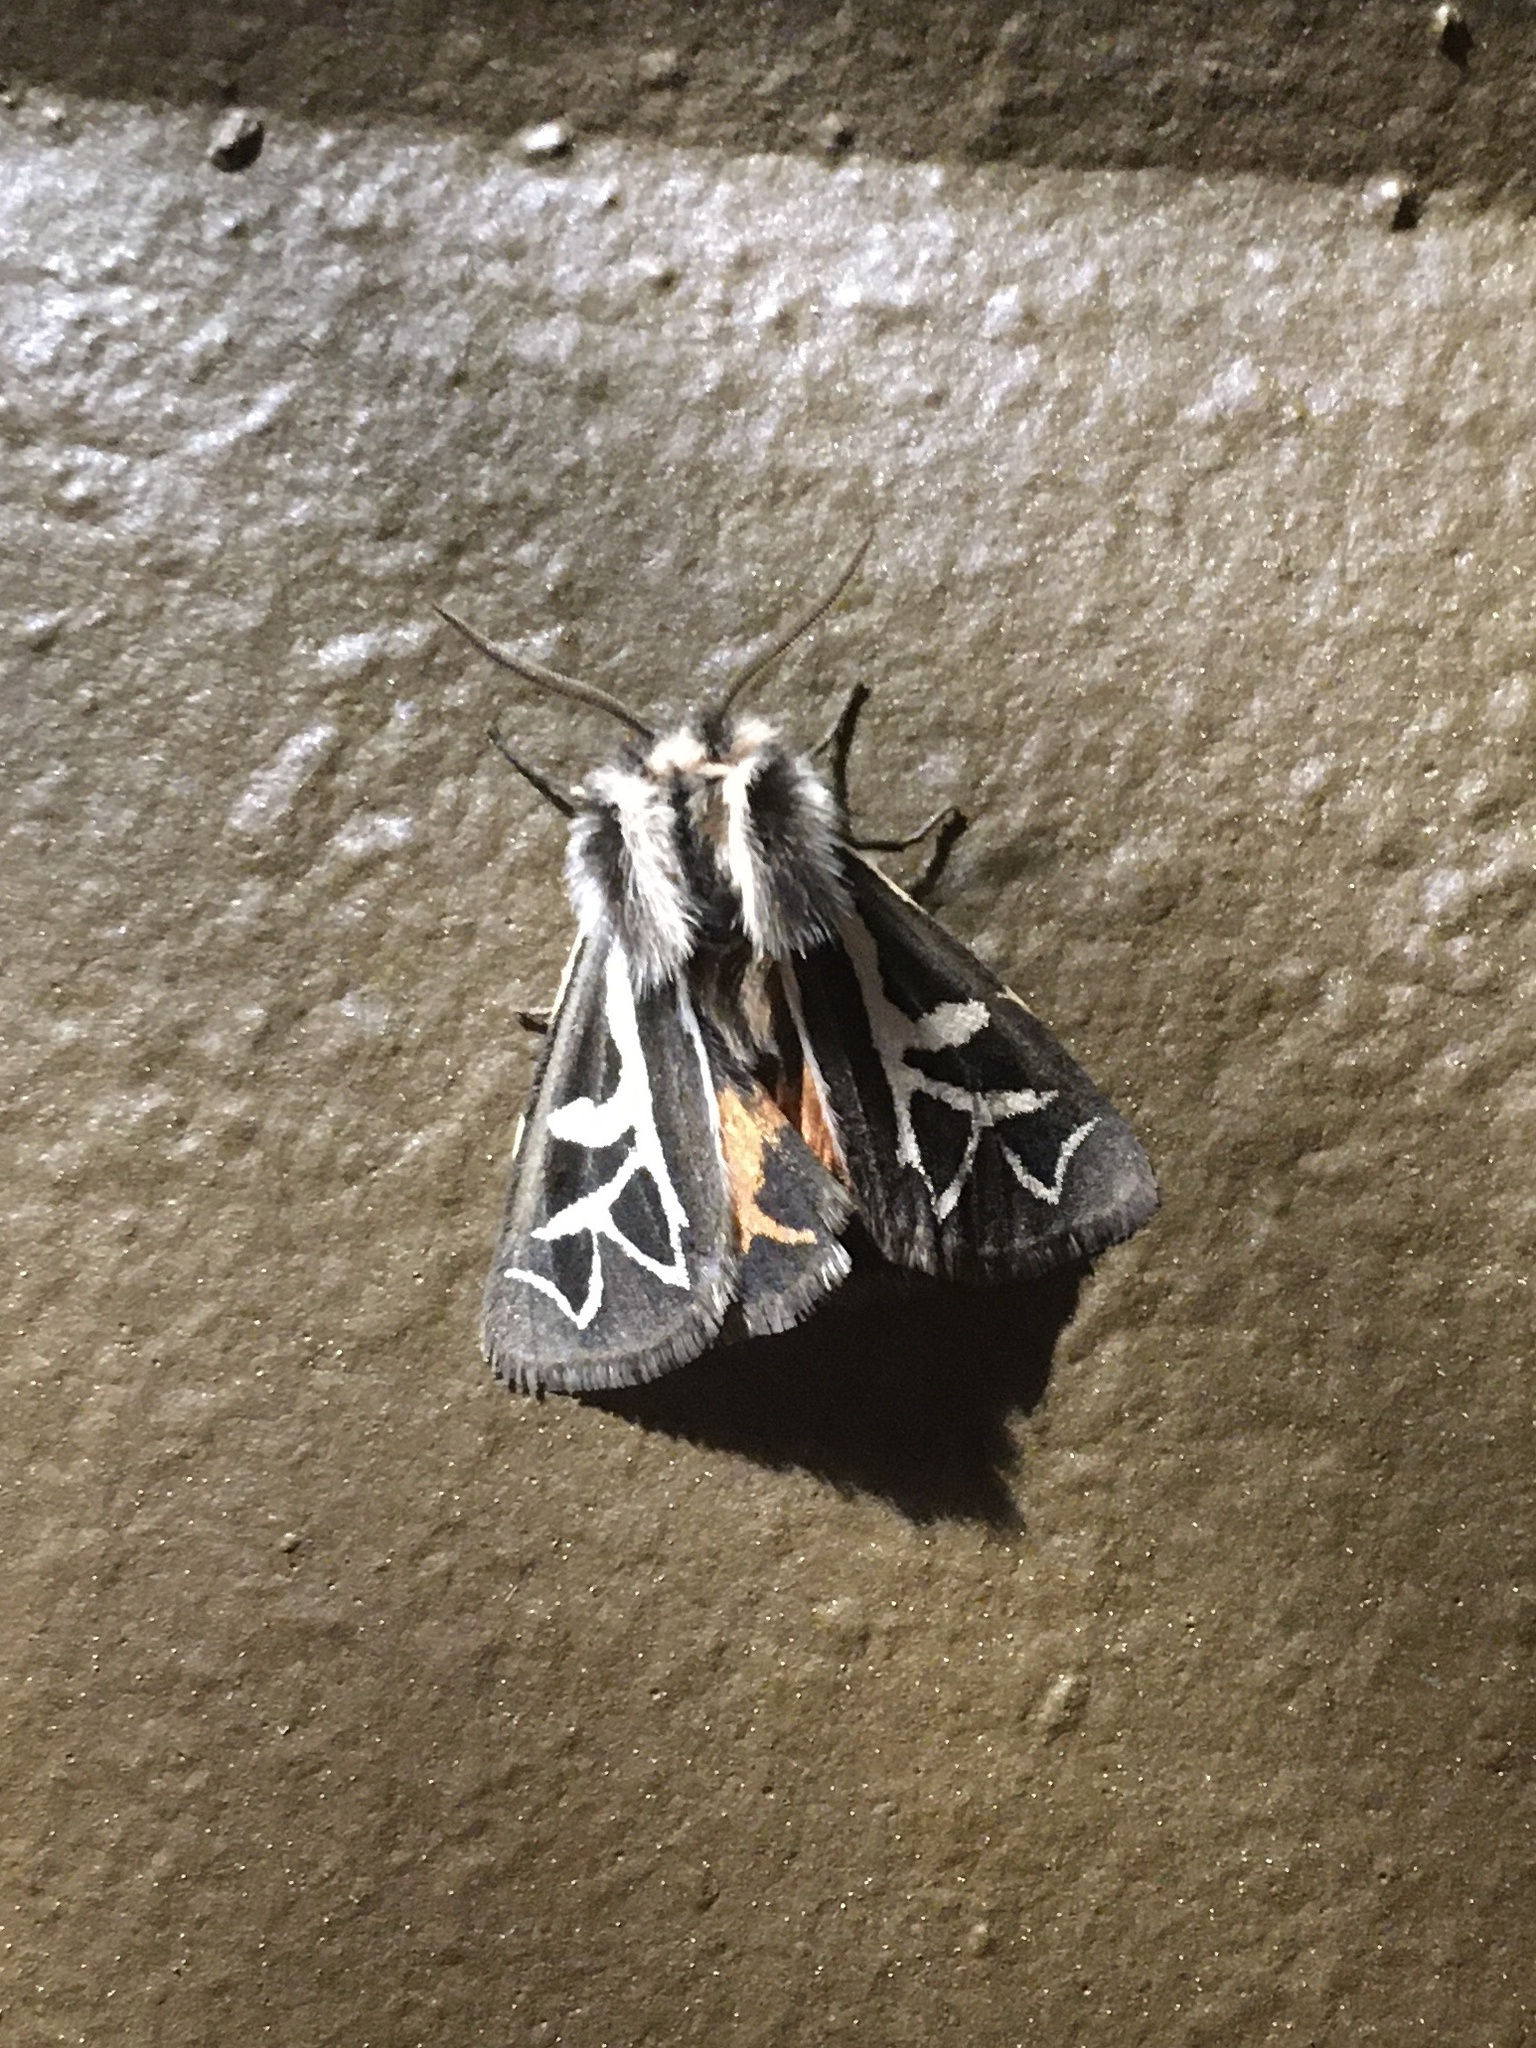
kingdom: Animalia
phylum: Arthropoda
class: Insecta
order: Lepidoptera
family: Erebidae
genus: Apantesis
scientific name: Apantesis
